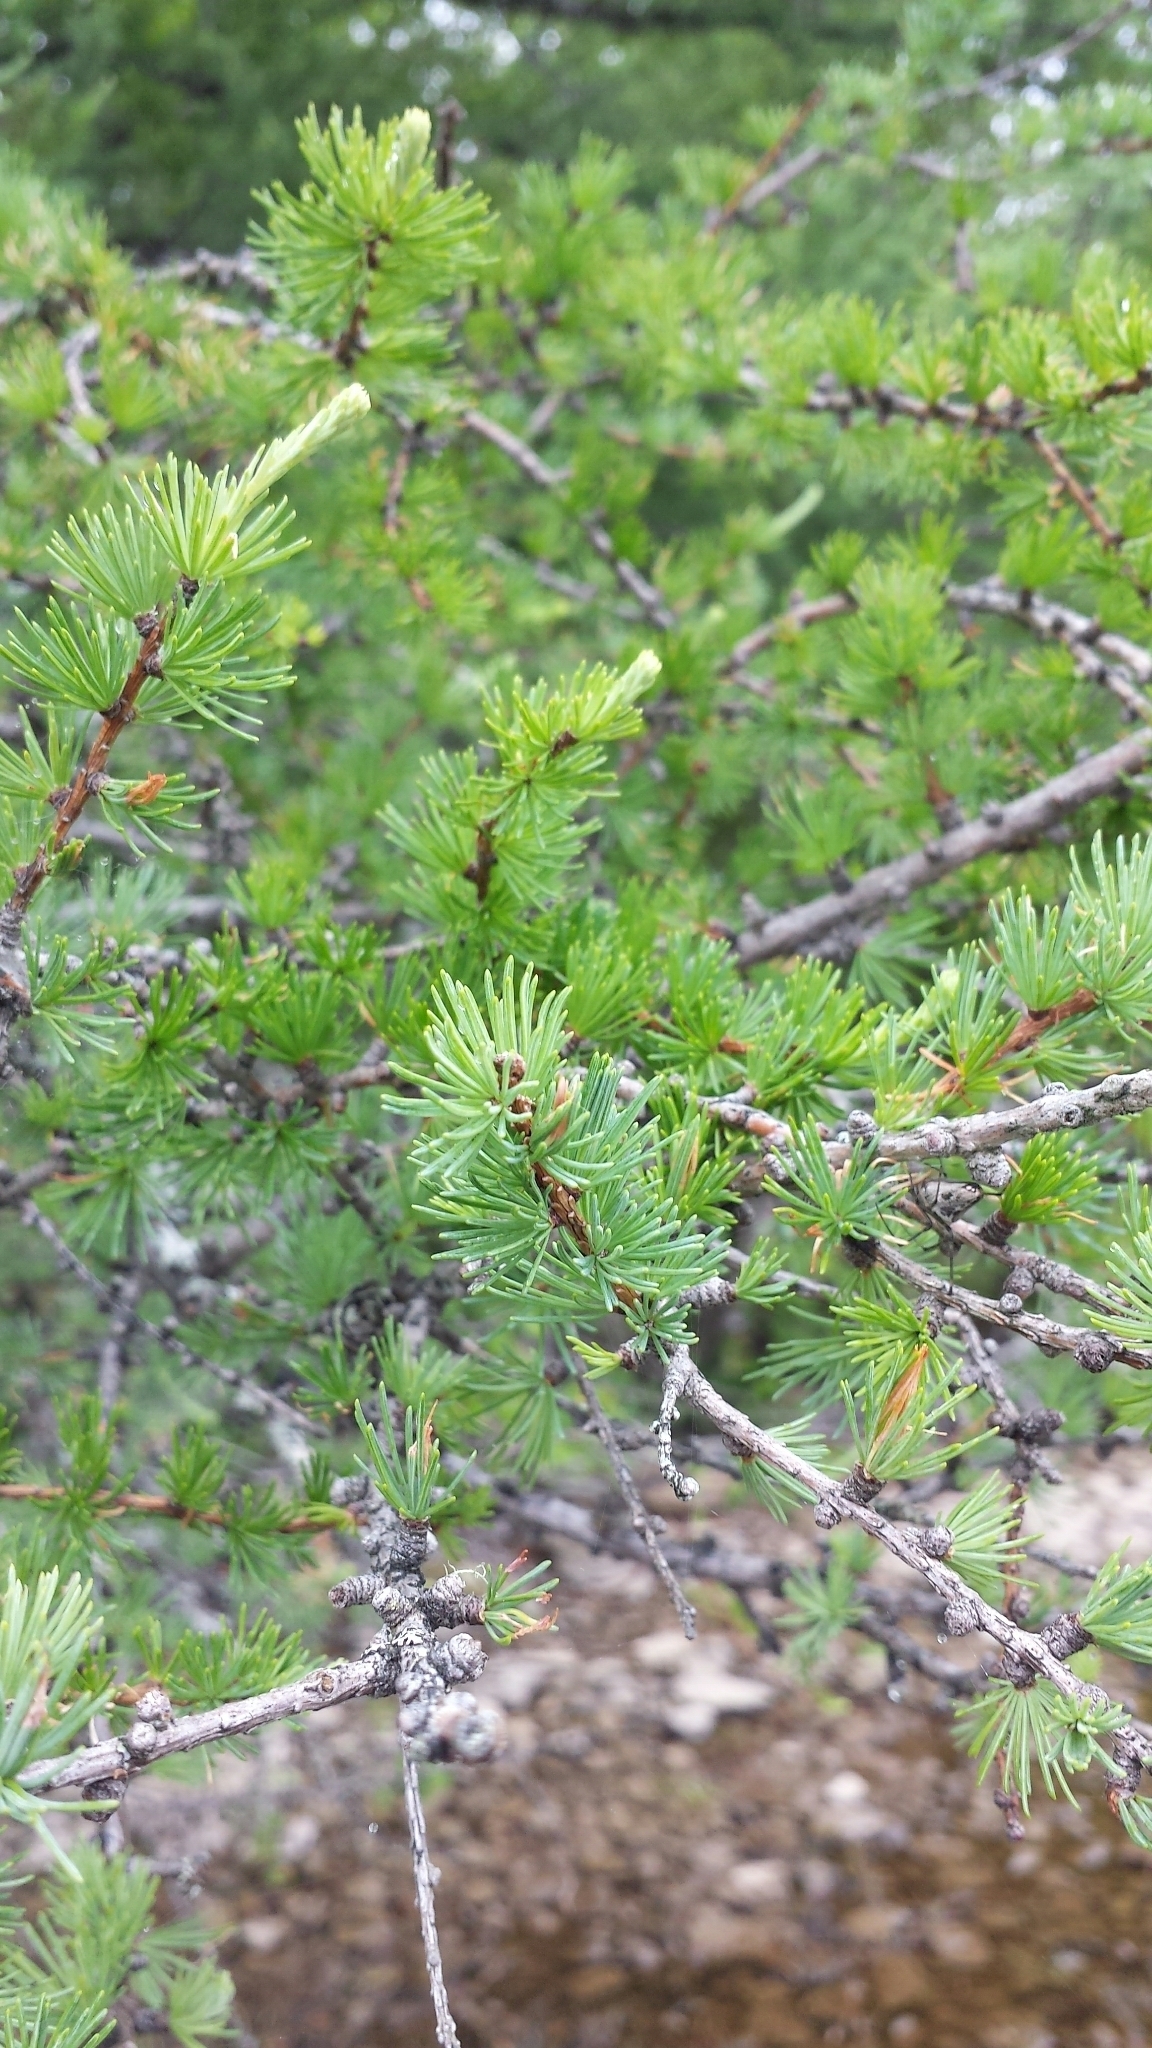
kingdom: Plantae
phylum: Tracheophyta
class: Pinopsida
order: Pinales
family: Pinaceae
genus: Larix
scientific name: Larix laricina
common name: American larch
